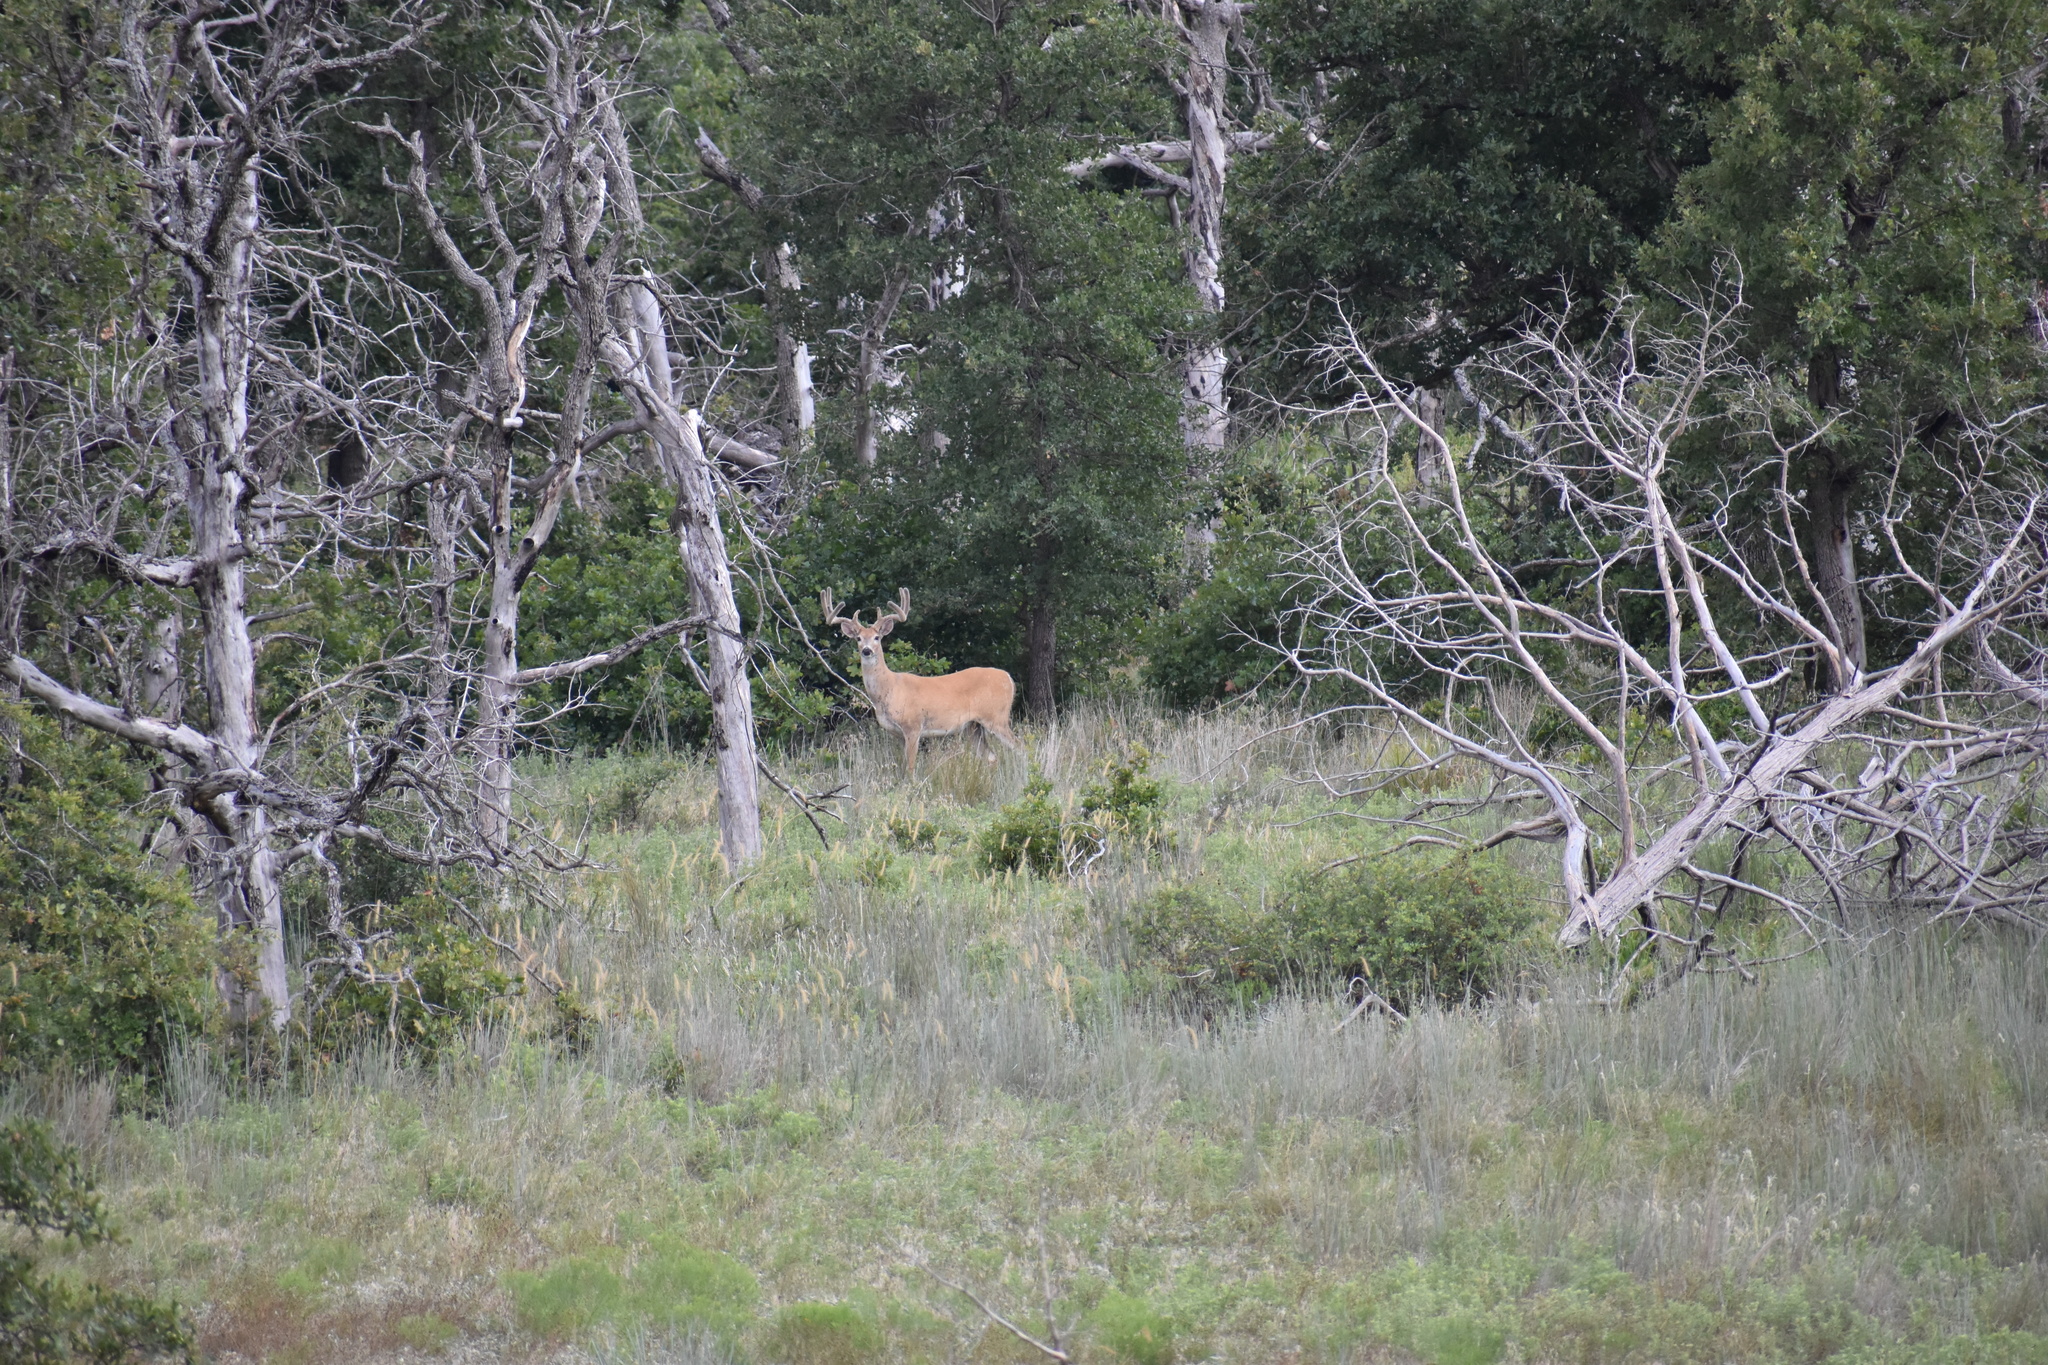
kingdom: Animalia
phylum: Chordata
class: Mammalia
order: Artiodactyla
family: Cervidae
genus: Odocoileus
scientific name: Odocoileus virginianus
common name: White-tailed deer
